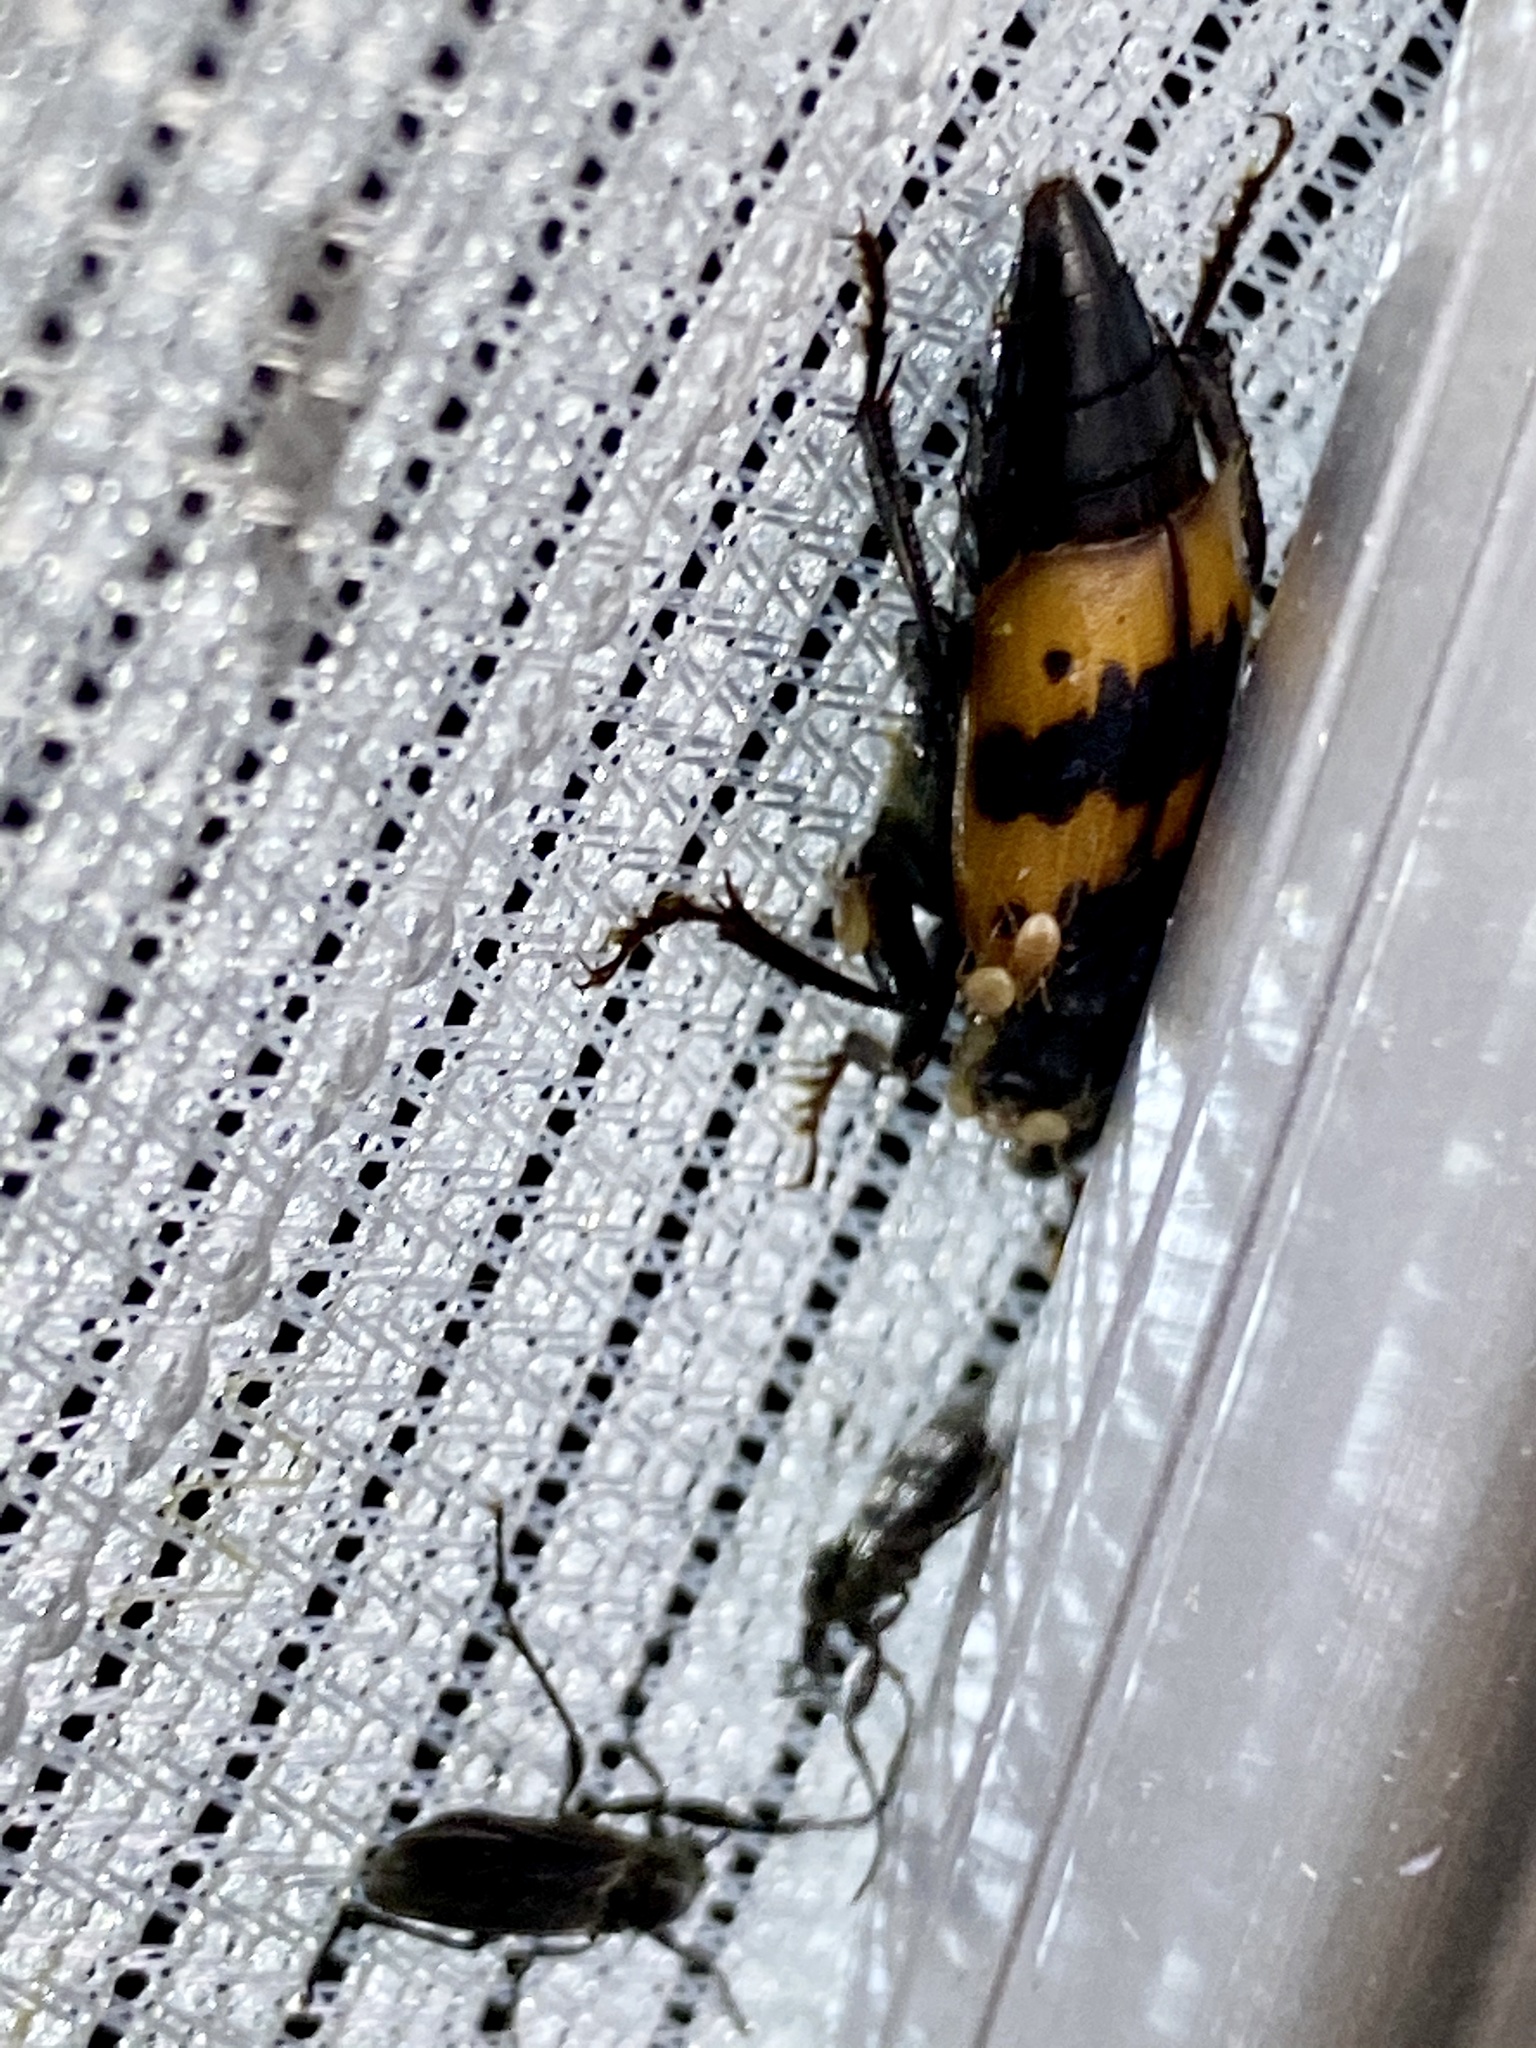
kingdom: Animalia
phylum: Arthropoda
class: Insecta
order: Coleoptera
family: Staphylinidae
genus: Nicrophorus
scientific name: Nicrophorus quadripunctatus
